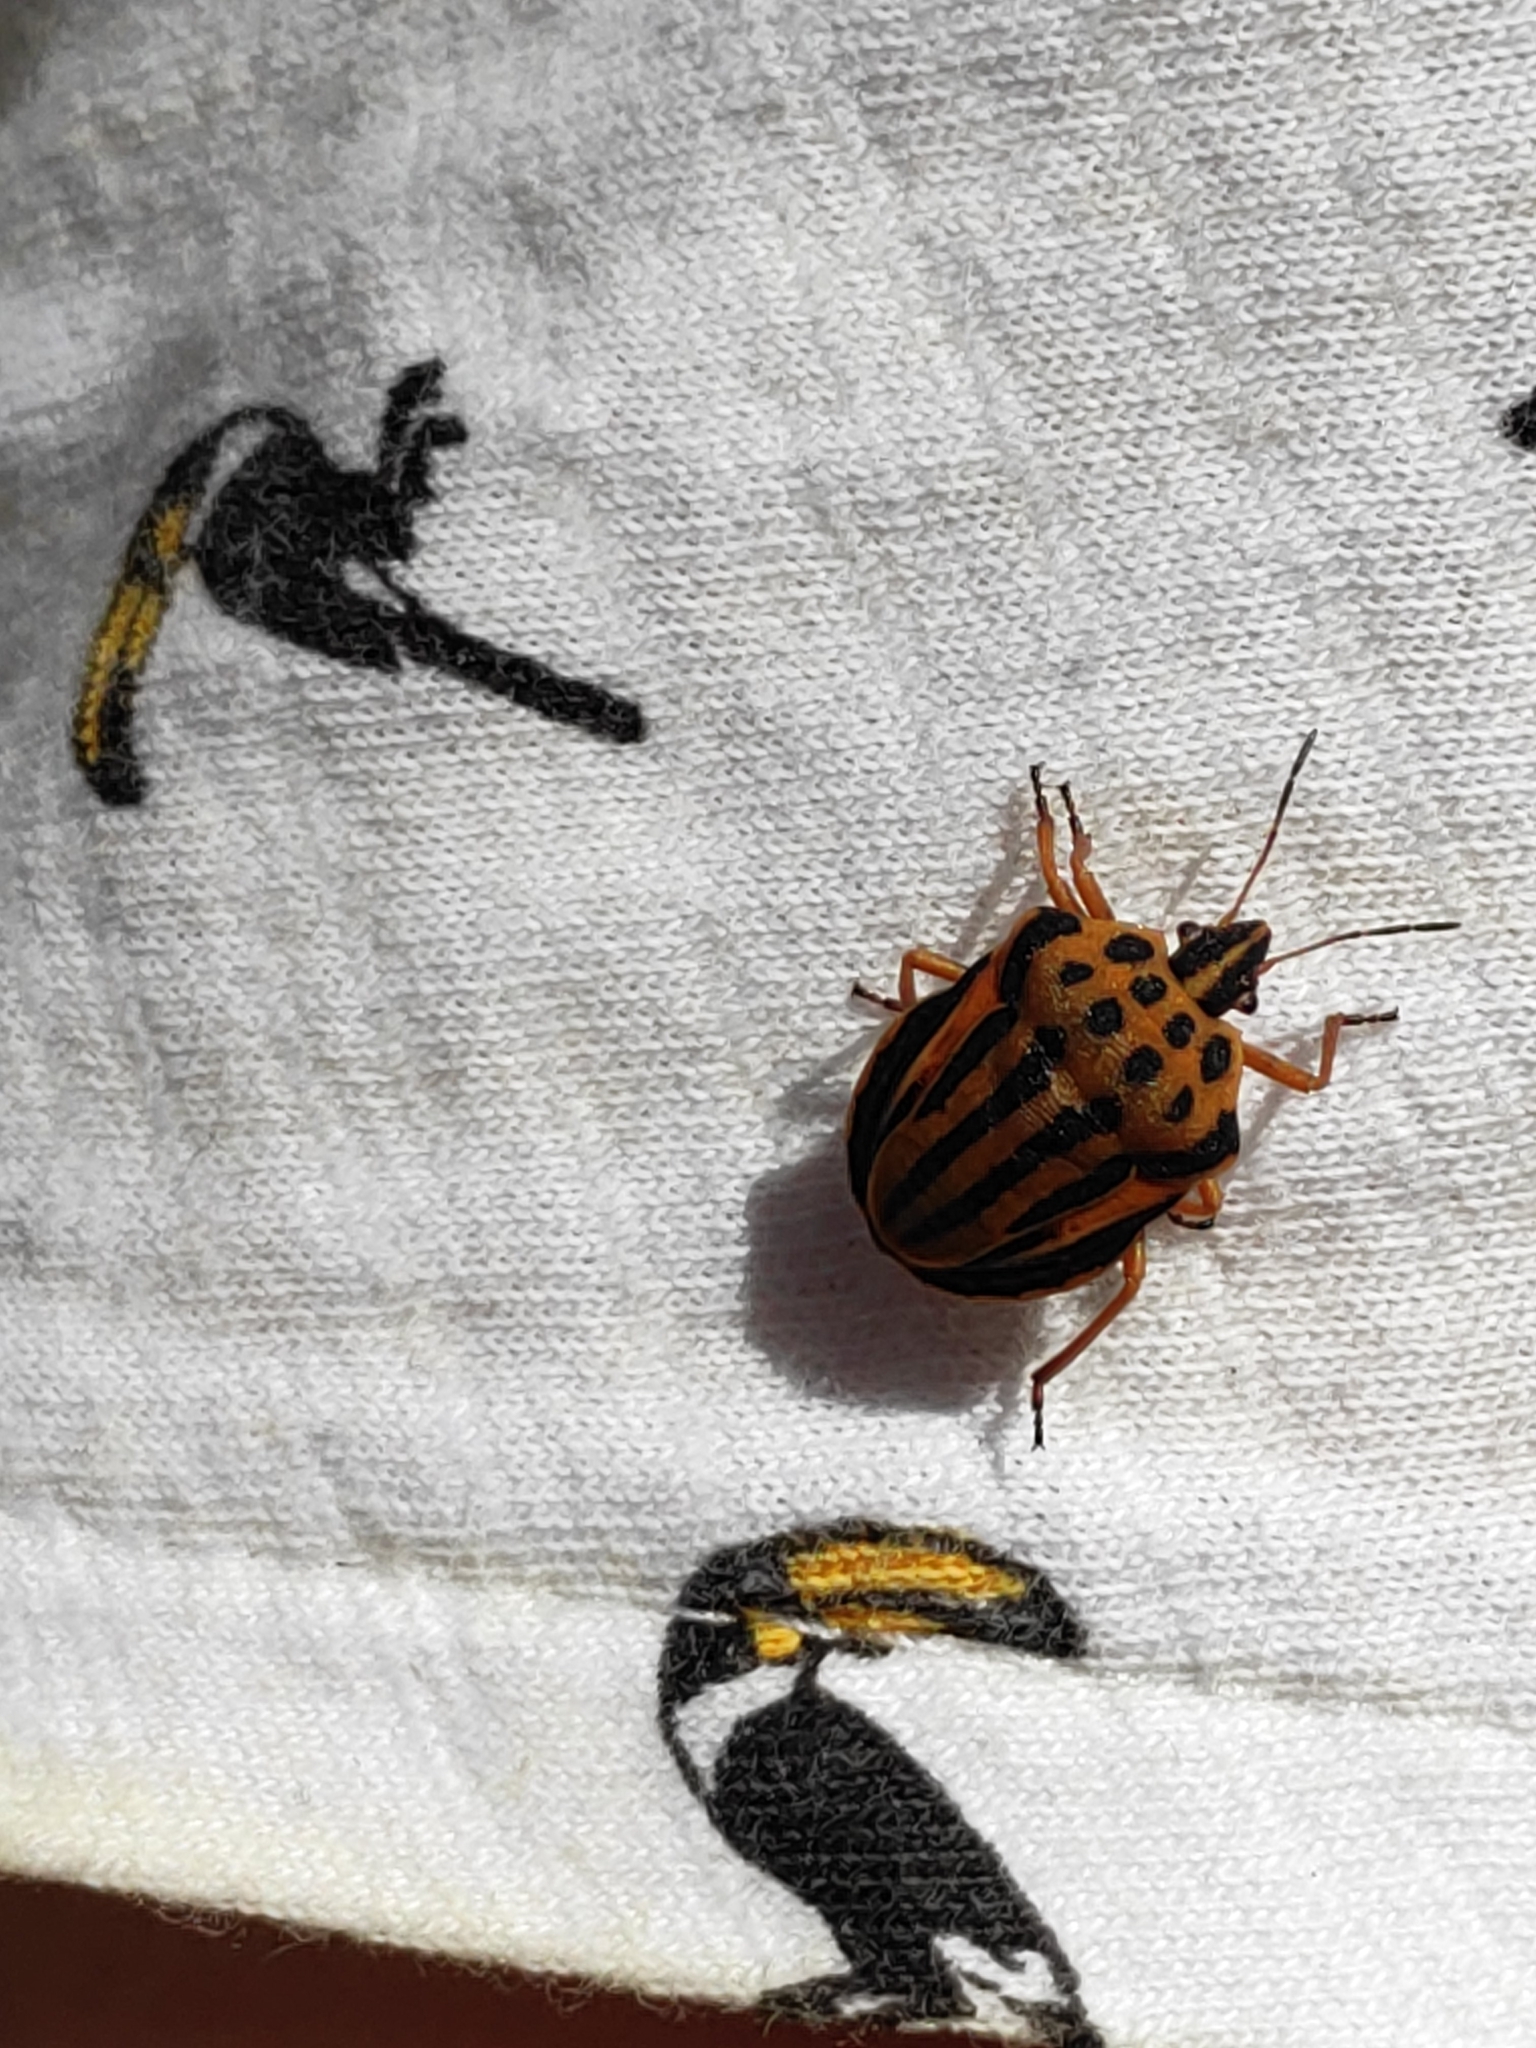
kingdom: Animalia
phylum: Arthropoda
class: Insecta
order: Hemiptera
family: Pentatomidae
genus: Graphosoma
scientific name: Graphosoma semipunctatum
